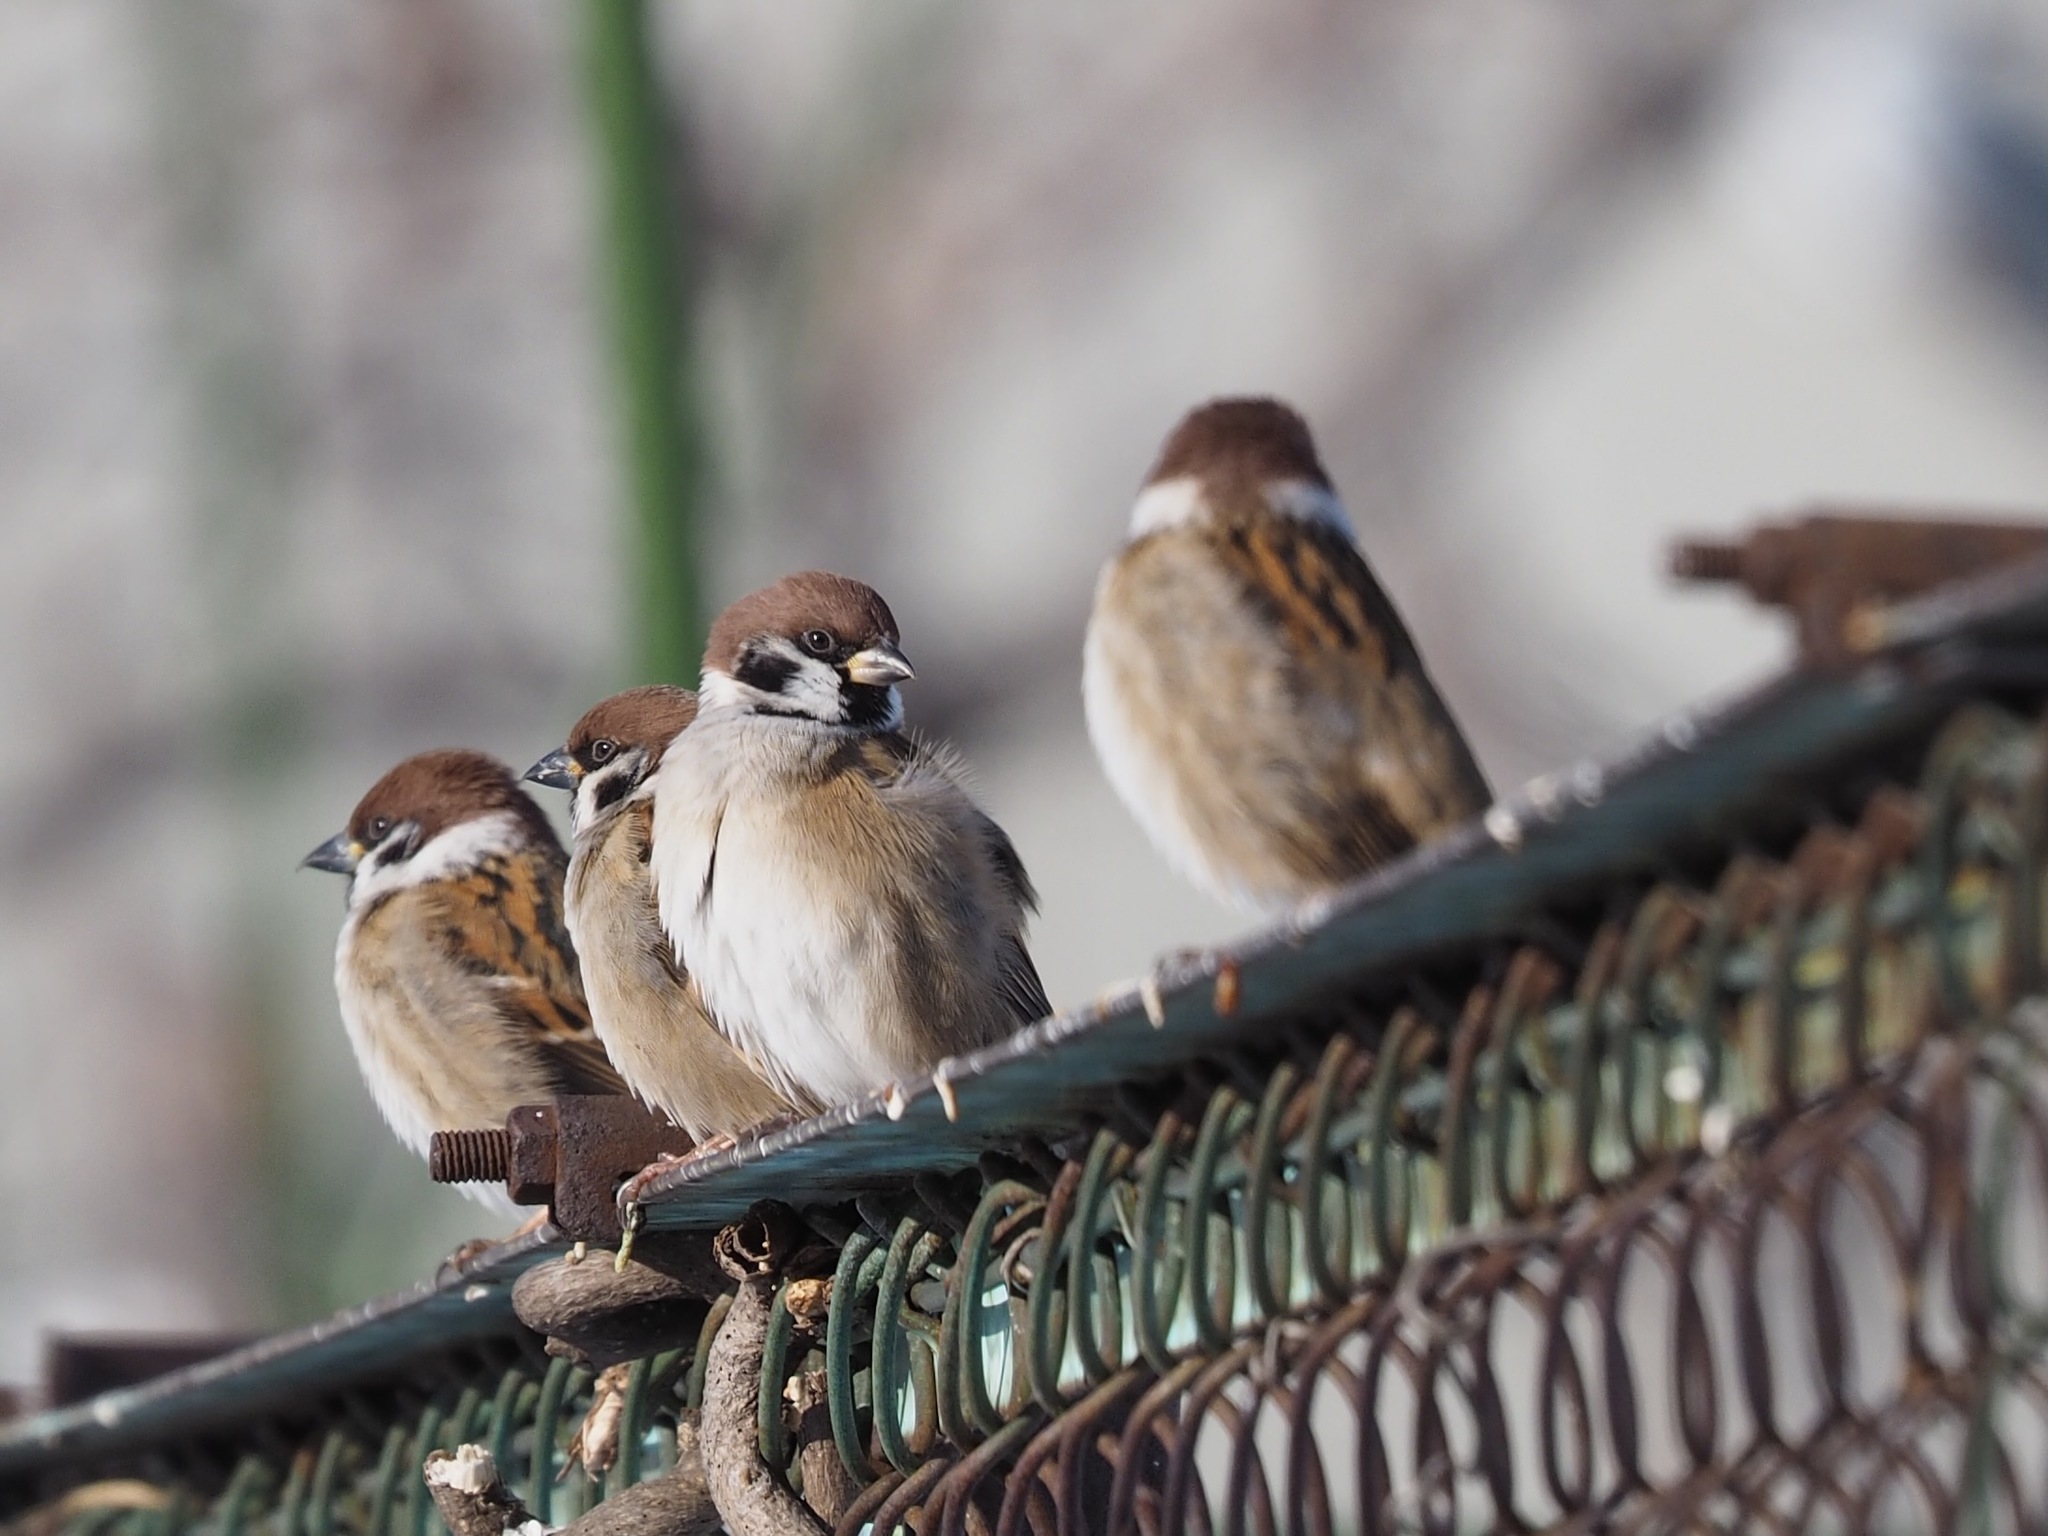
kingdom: Animalia
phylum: Chordata
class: Aves
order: Passeriformes
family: Passeridae
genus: Passer
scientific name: Passer montanus
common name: Eurasian tree sparrow
